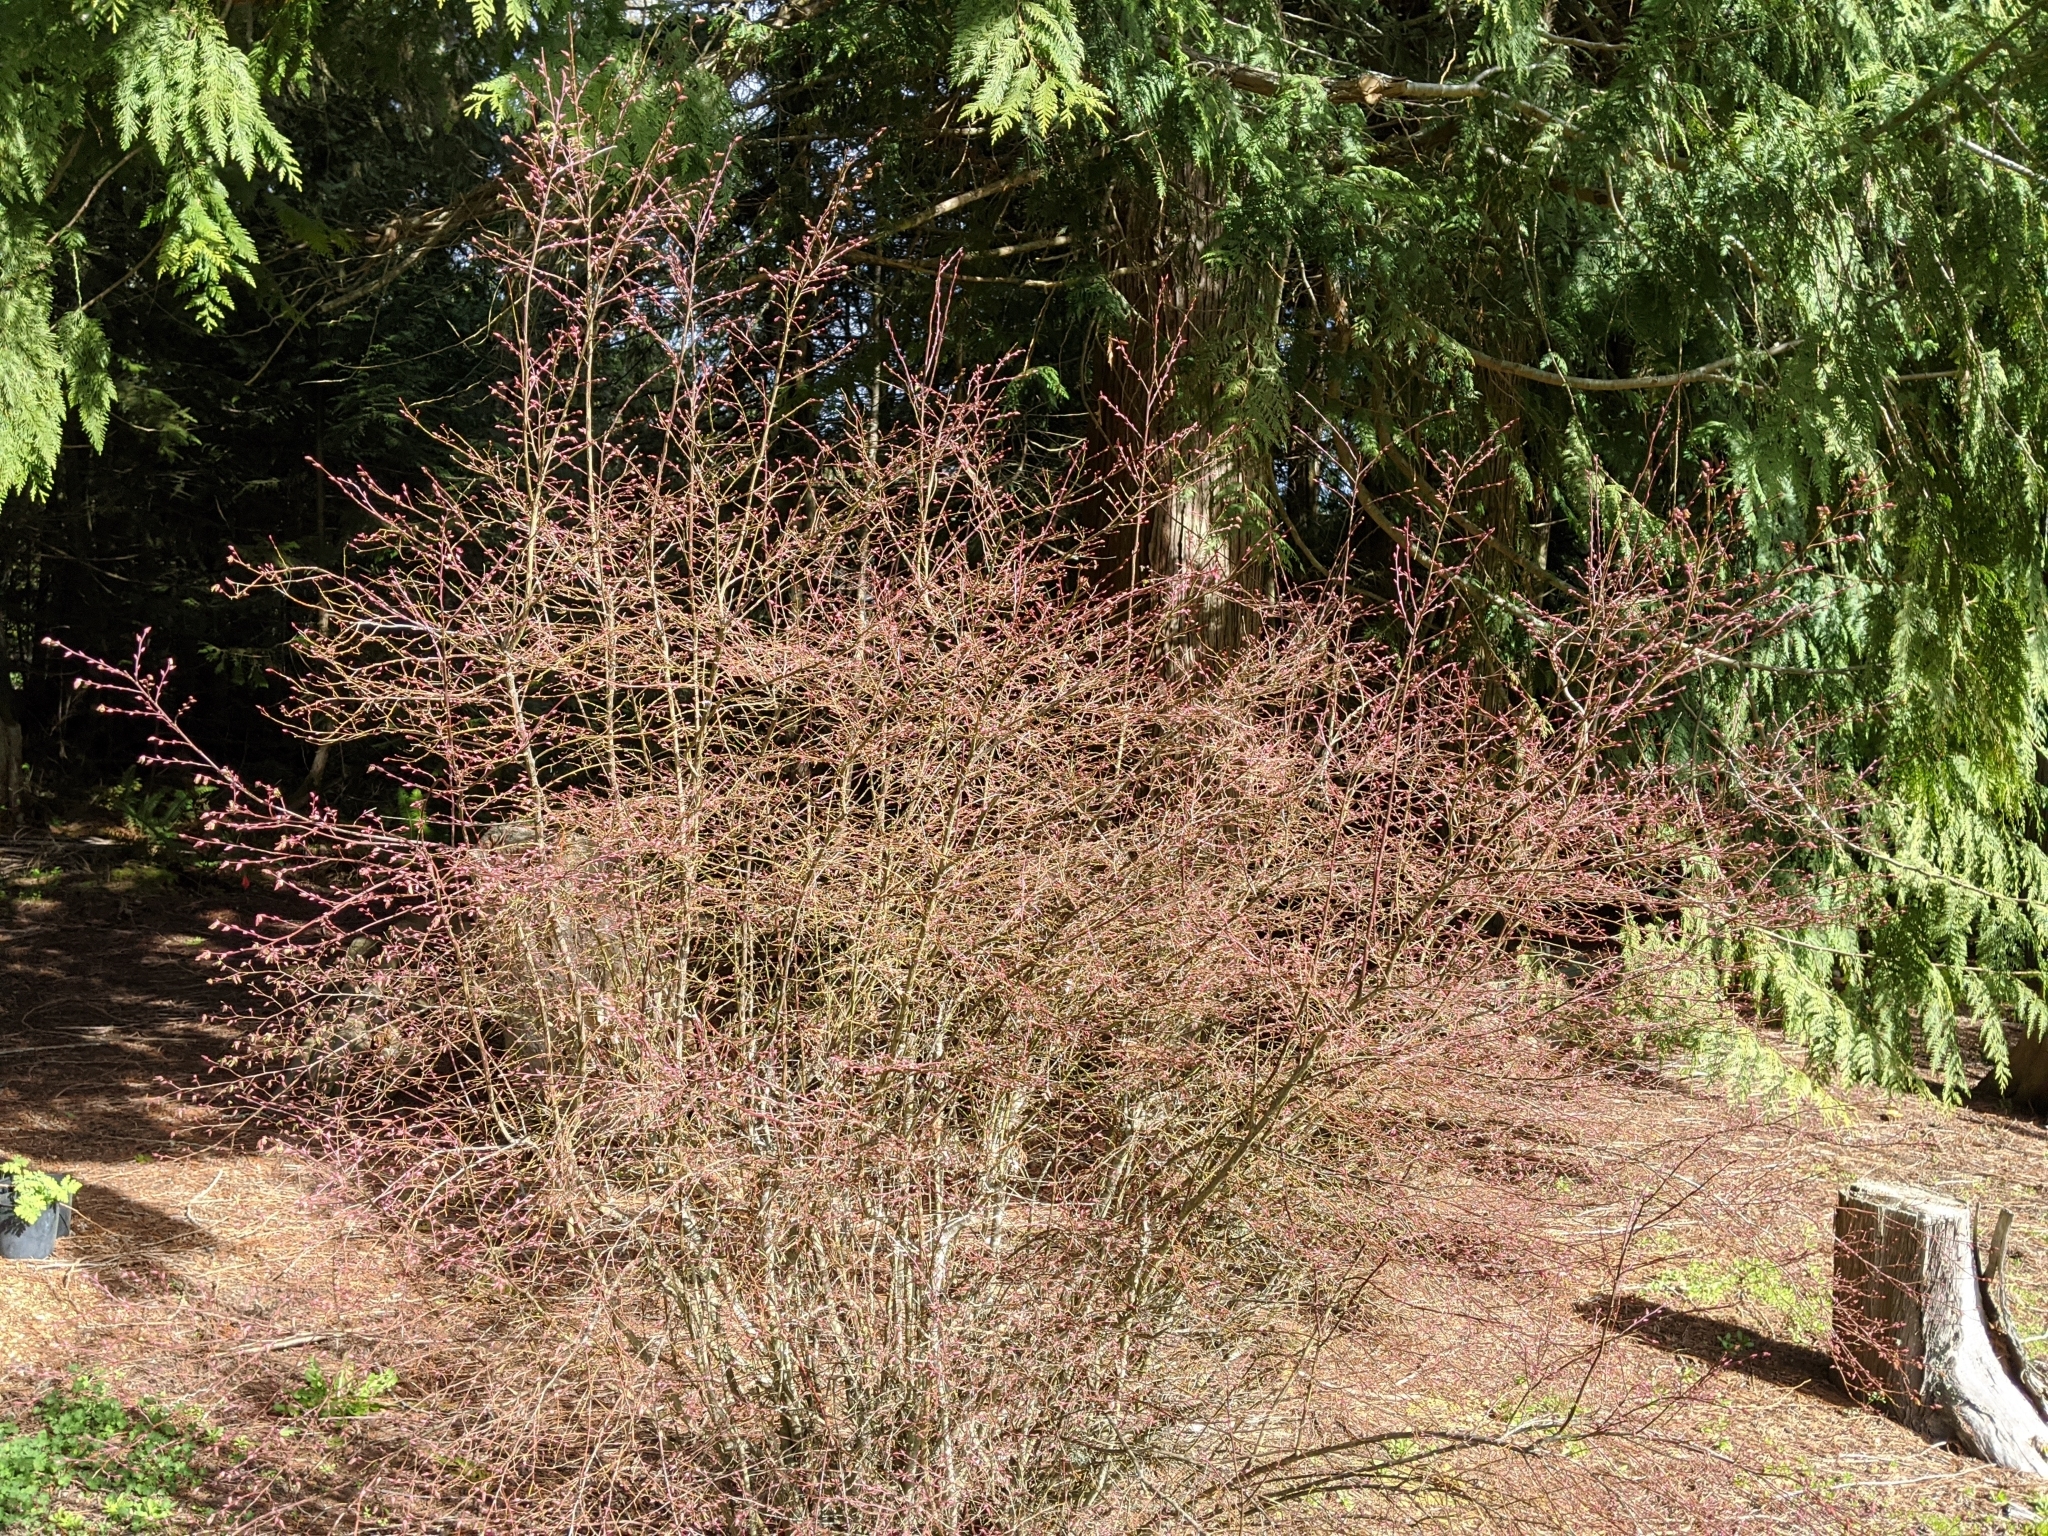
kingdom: Plantae
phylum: Tracheophyta
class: Magnoliopsida
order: Ericales
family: Ericaceae
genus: Vaccinium
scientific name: Vaccinium parvifolium
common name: Red-huckleberry
